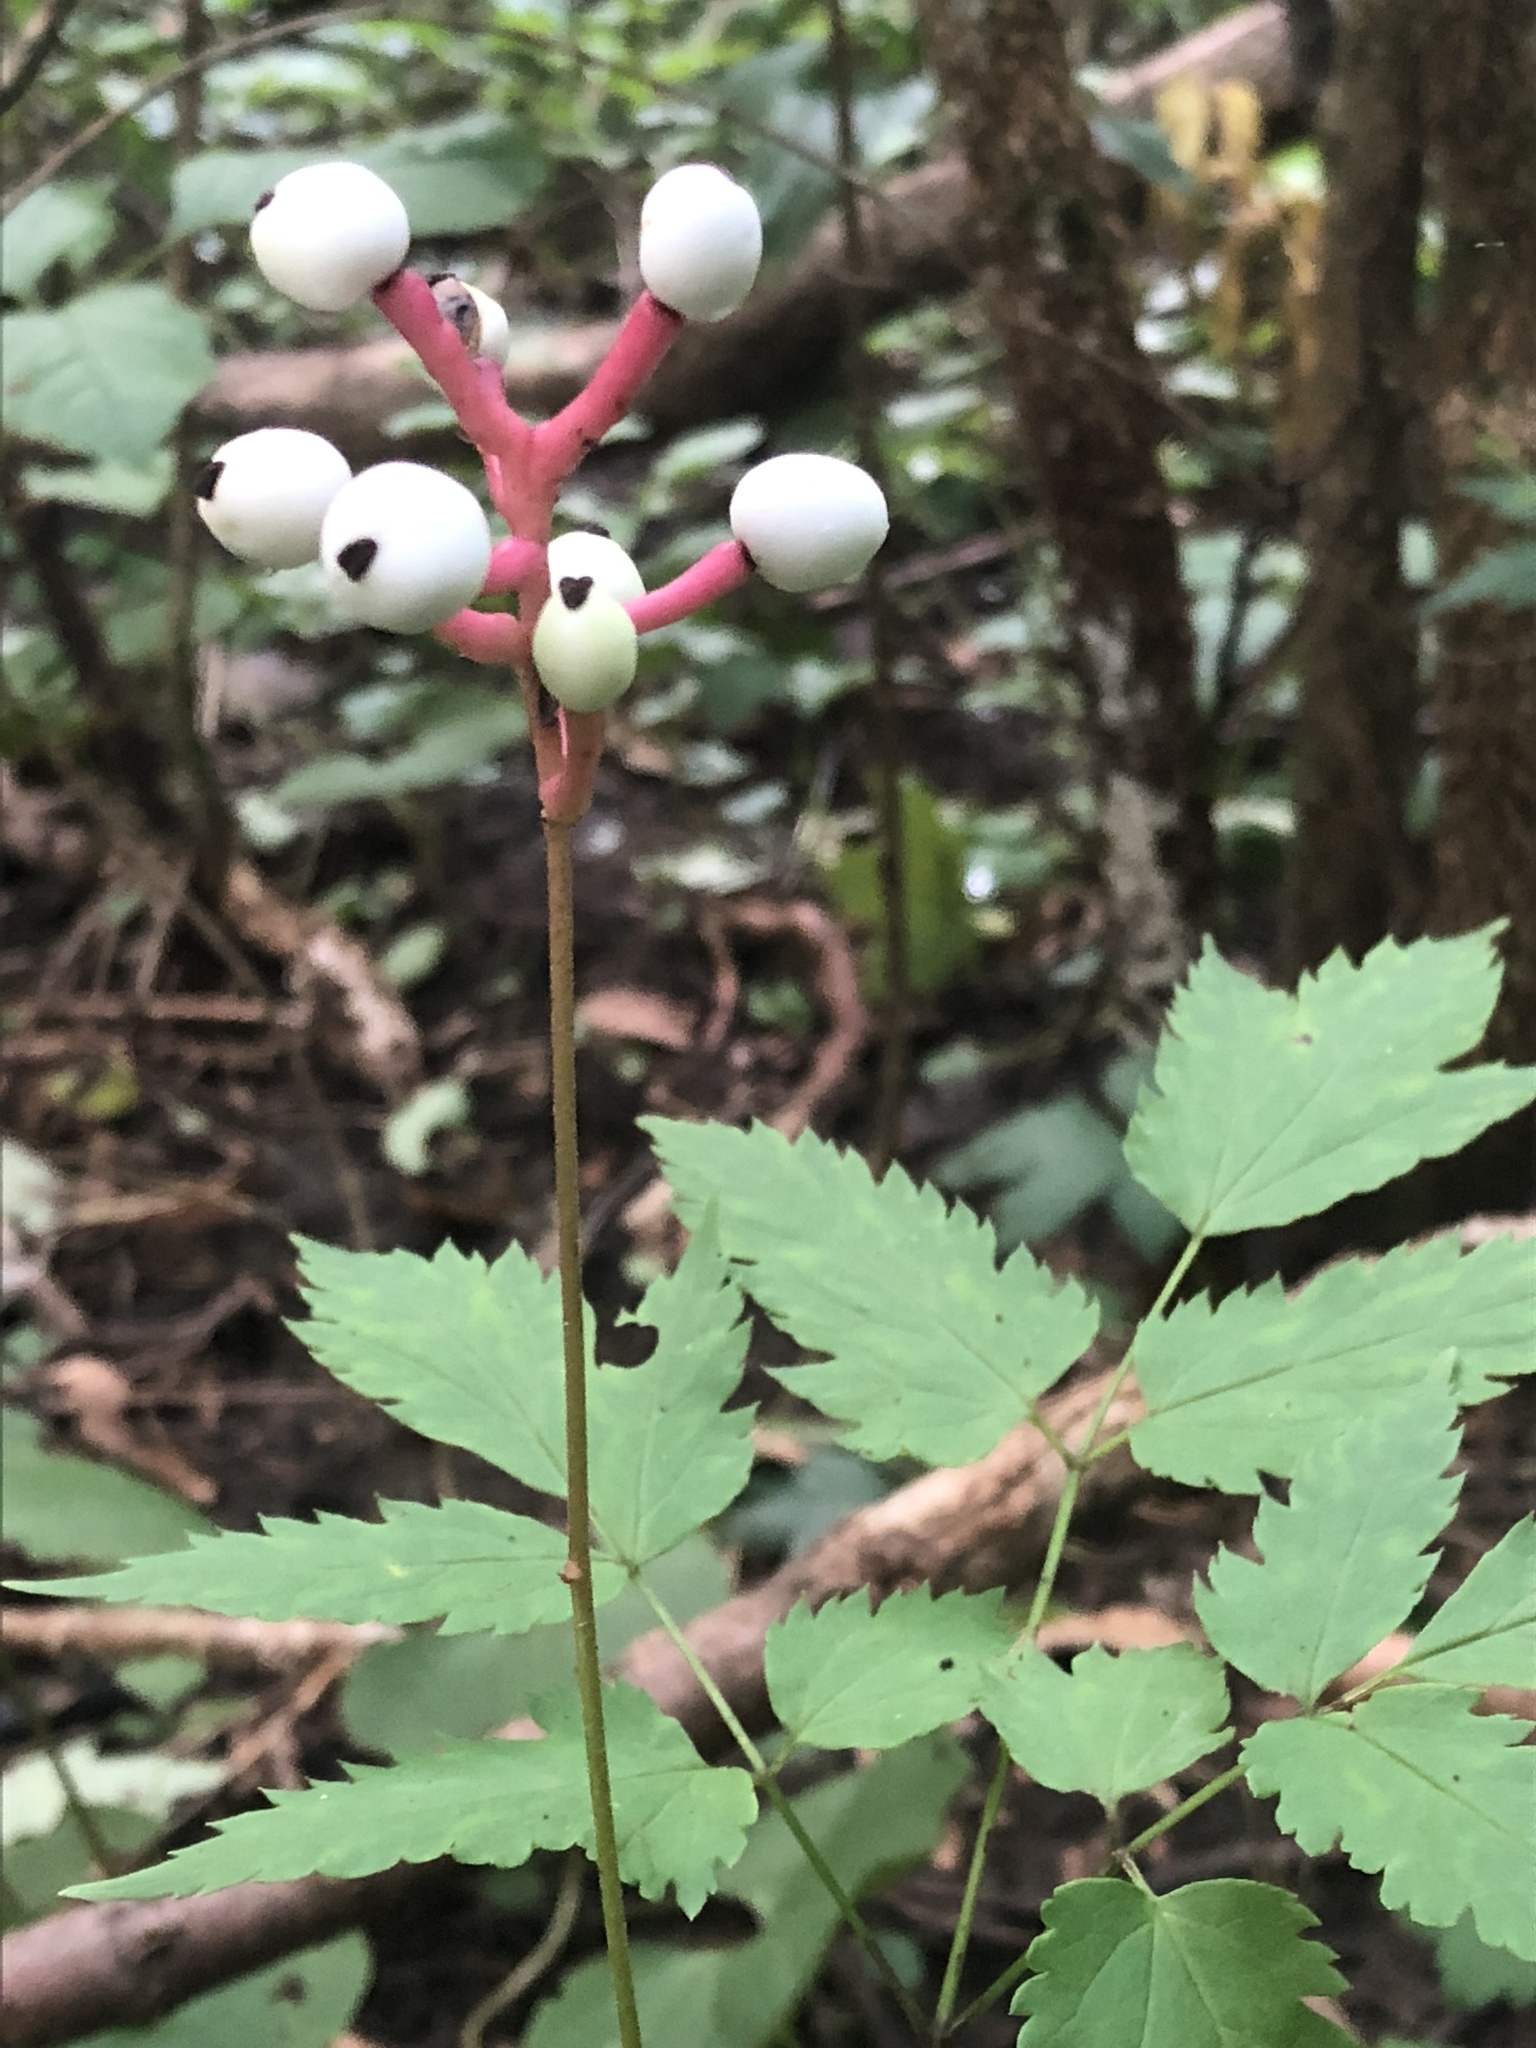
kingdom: Plantae
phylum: Tracheophyta
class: Magnoliopsida
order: Ranunculales
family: Ranunculaceae
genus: Actaea
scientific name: Actaea pachypoda
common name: Doll's-eyes
